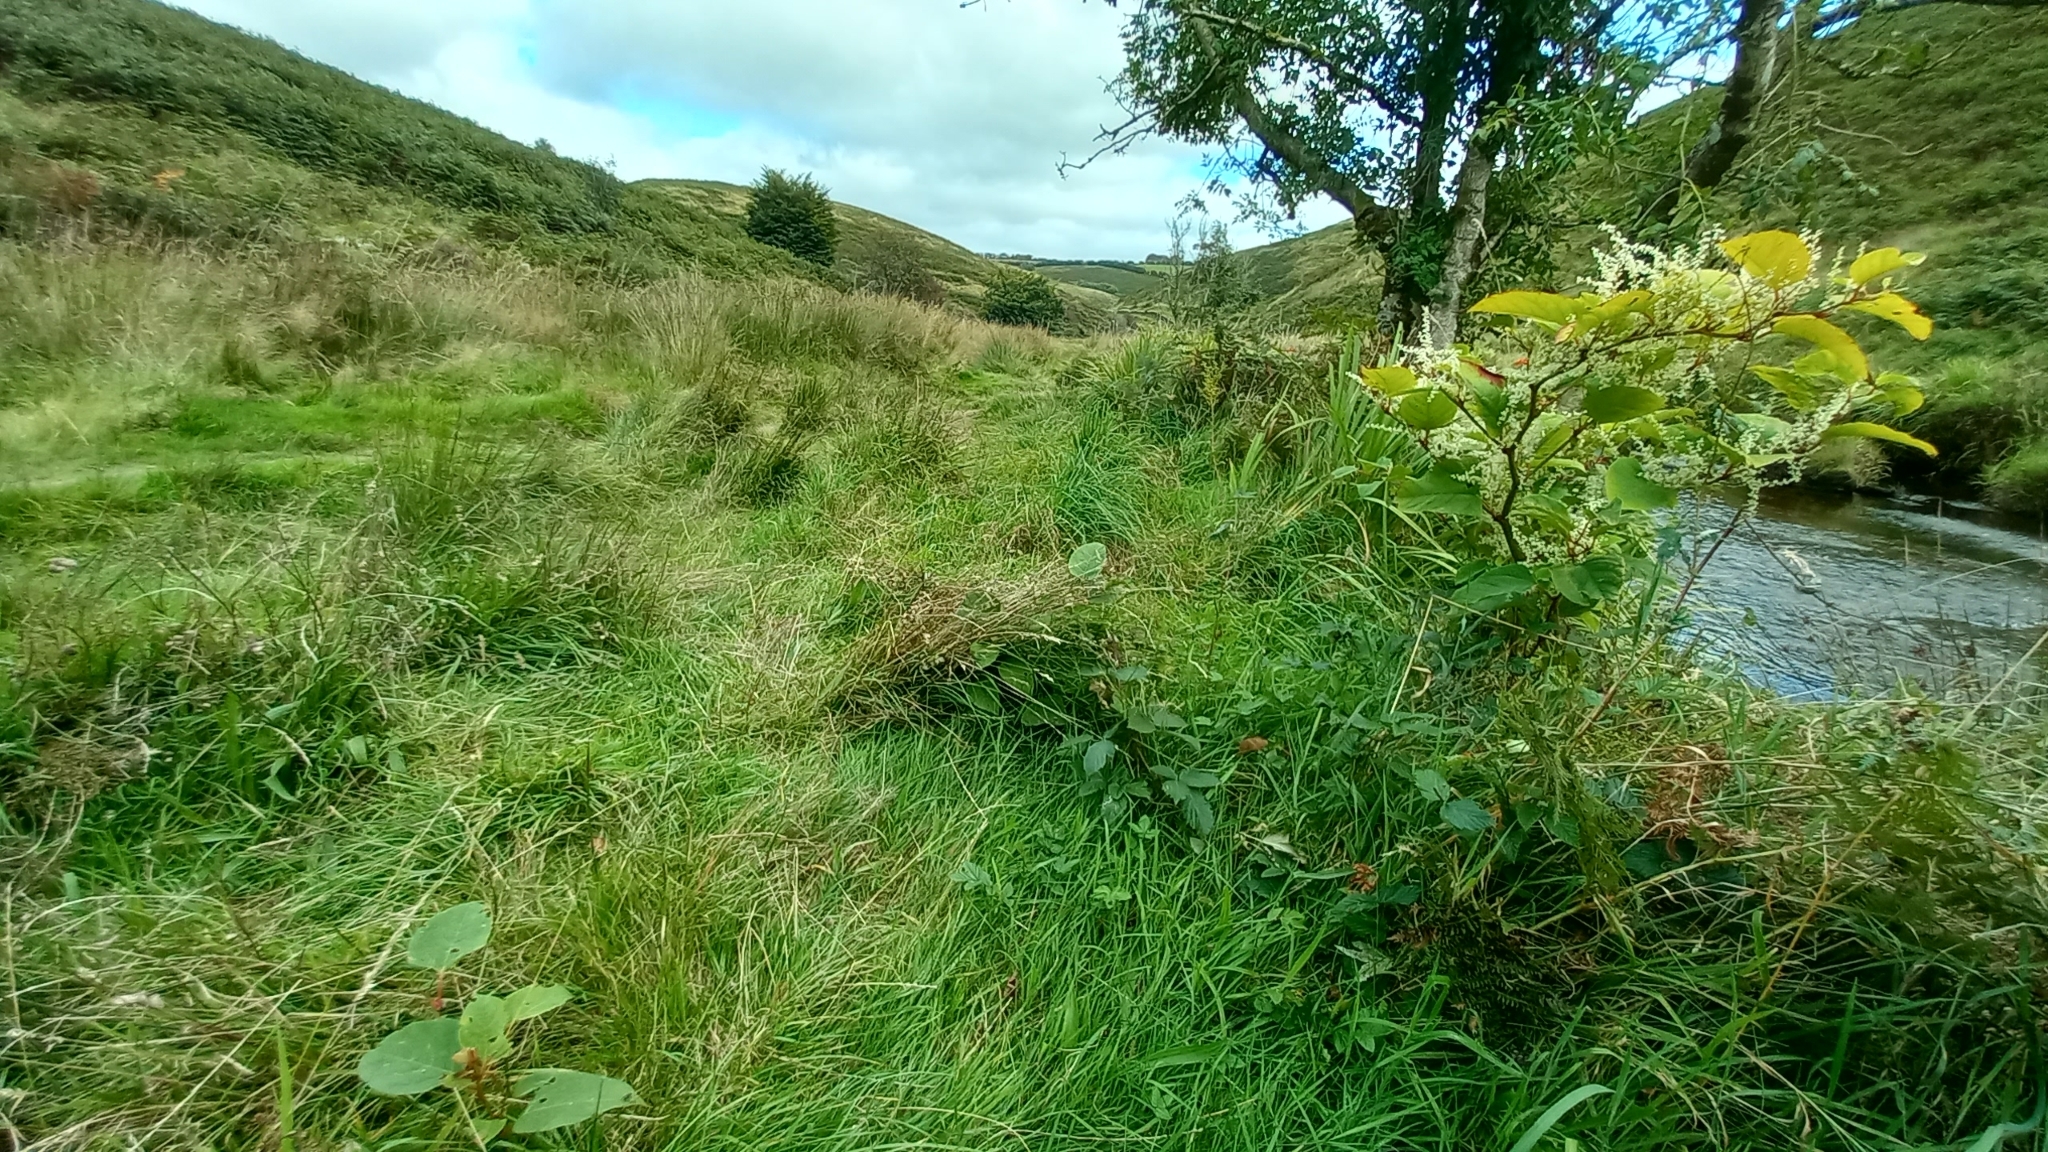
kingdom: Plantae
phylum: Tracheophyta
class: Magnoliopsida
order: Caryophyllales
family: Polygonaceae
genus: Reynoutria
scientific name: Reynoutria japonica
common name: Japanese knotweed
